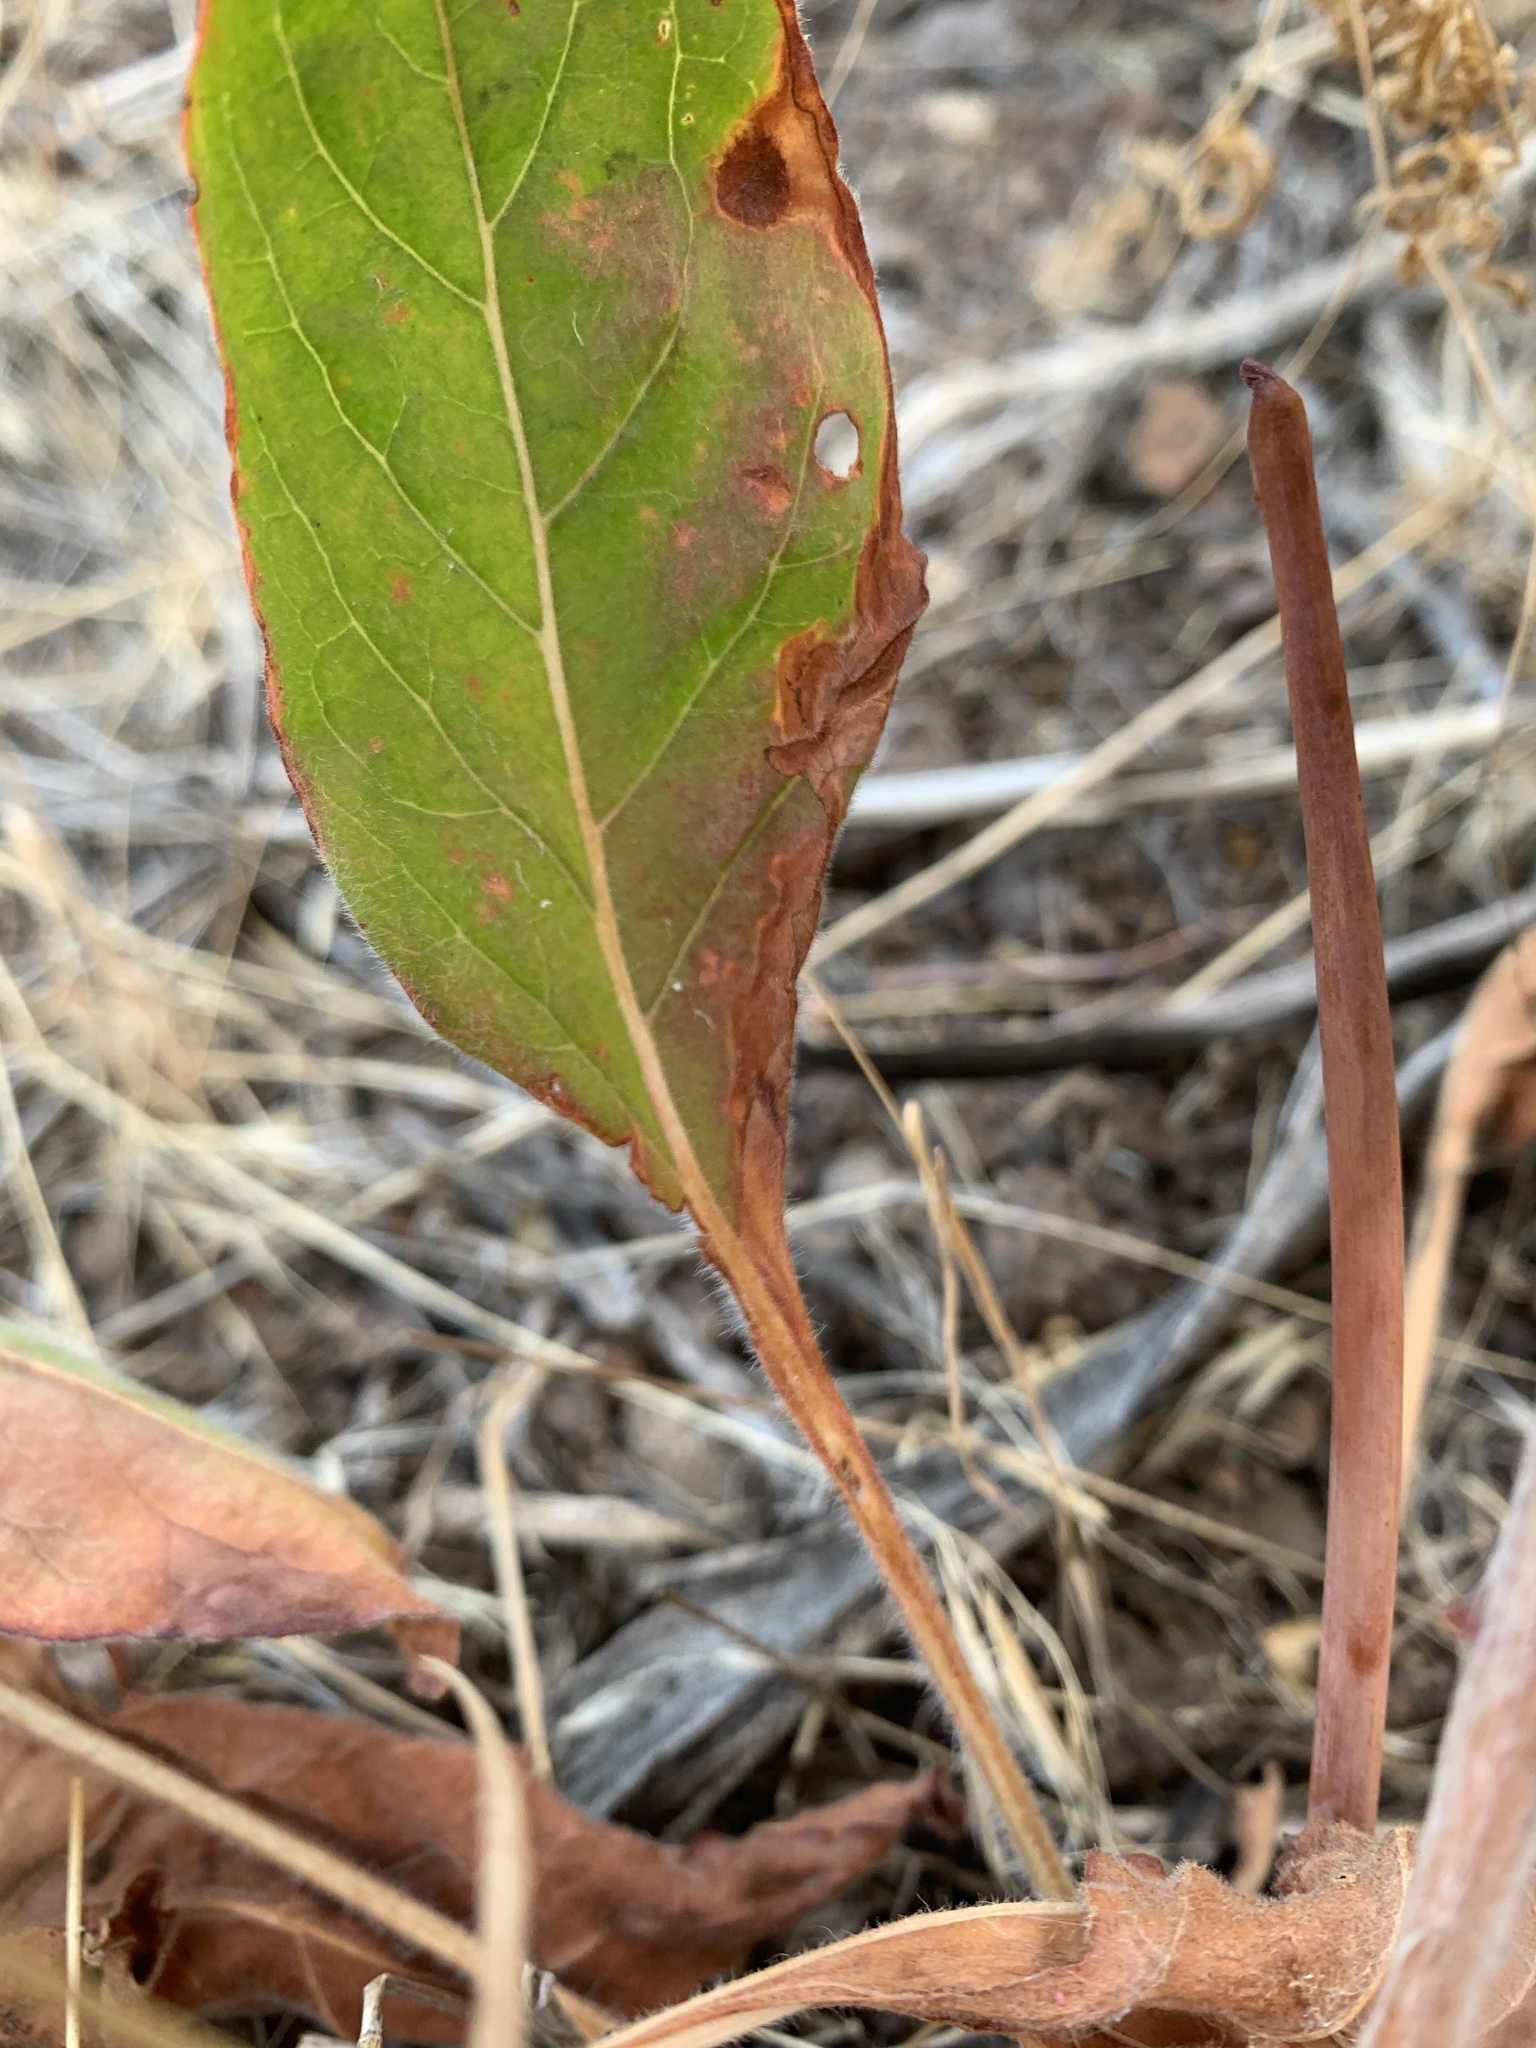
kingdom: Plantae
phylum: Tracheophyta
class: Magnoliopsida
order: Caryophyllales
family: Polygonaceae
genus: Eriogonum
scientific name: Eriogonum elatum
